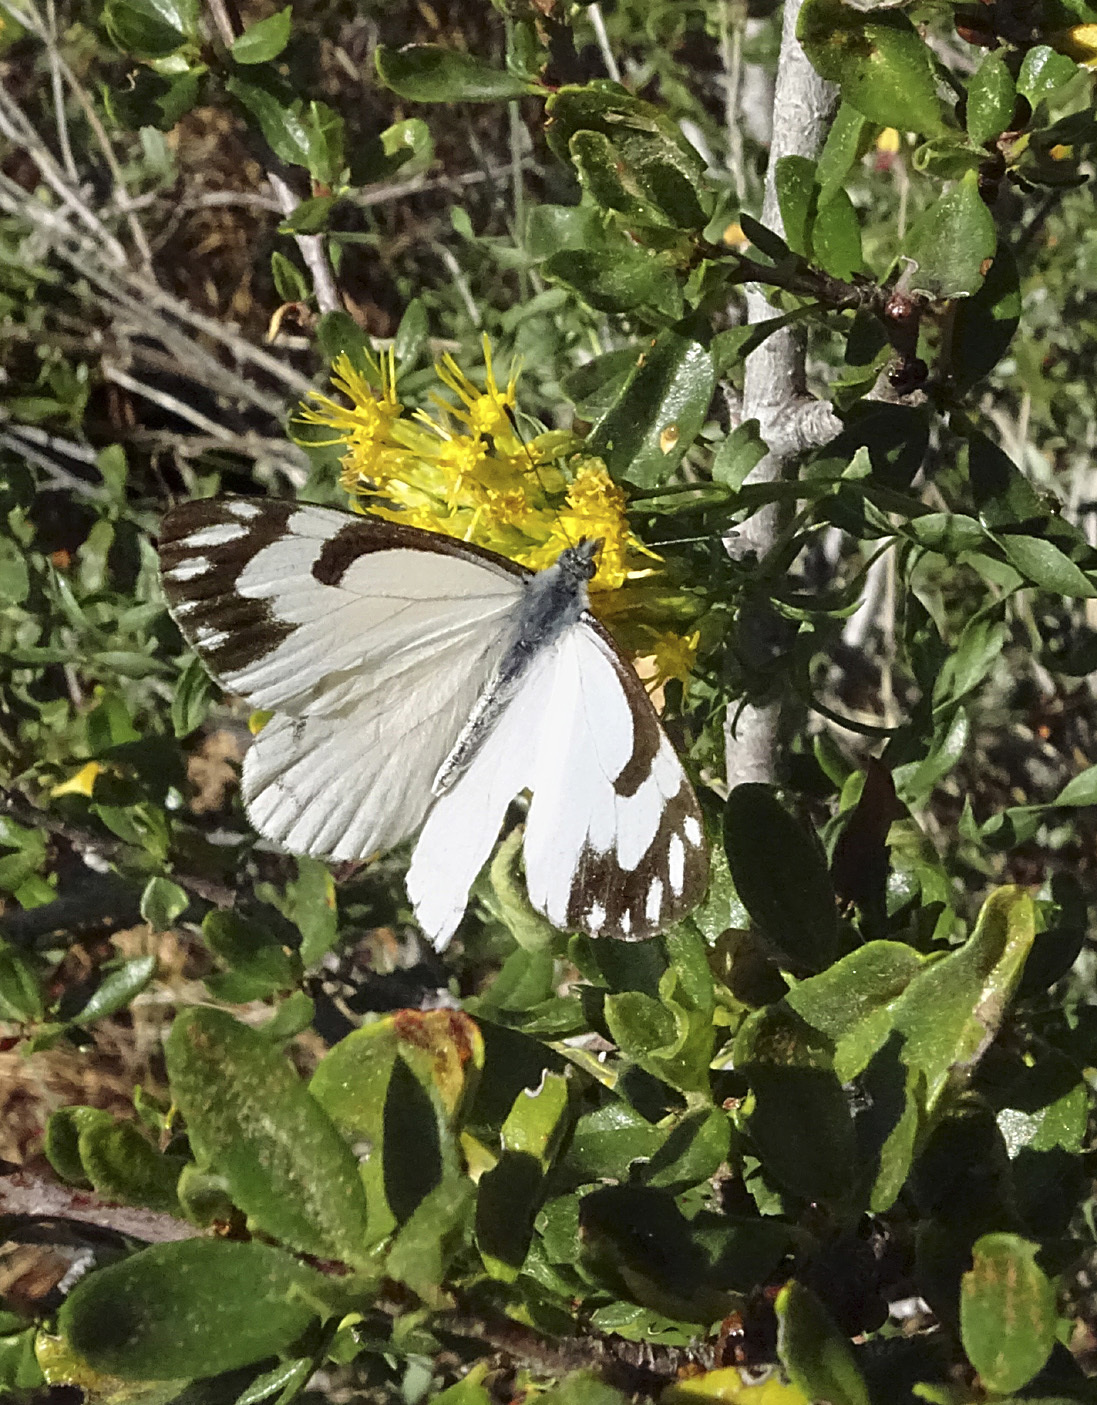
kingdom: Animalia
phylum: Arthropoda
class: Insecta
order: Lepidoptera
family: Pieridae
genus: Neophasia
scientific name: Neophasia menapia
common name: Pine white
